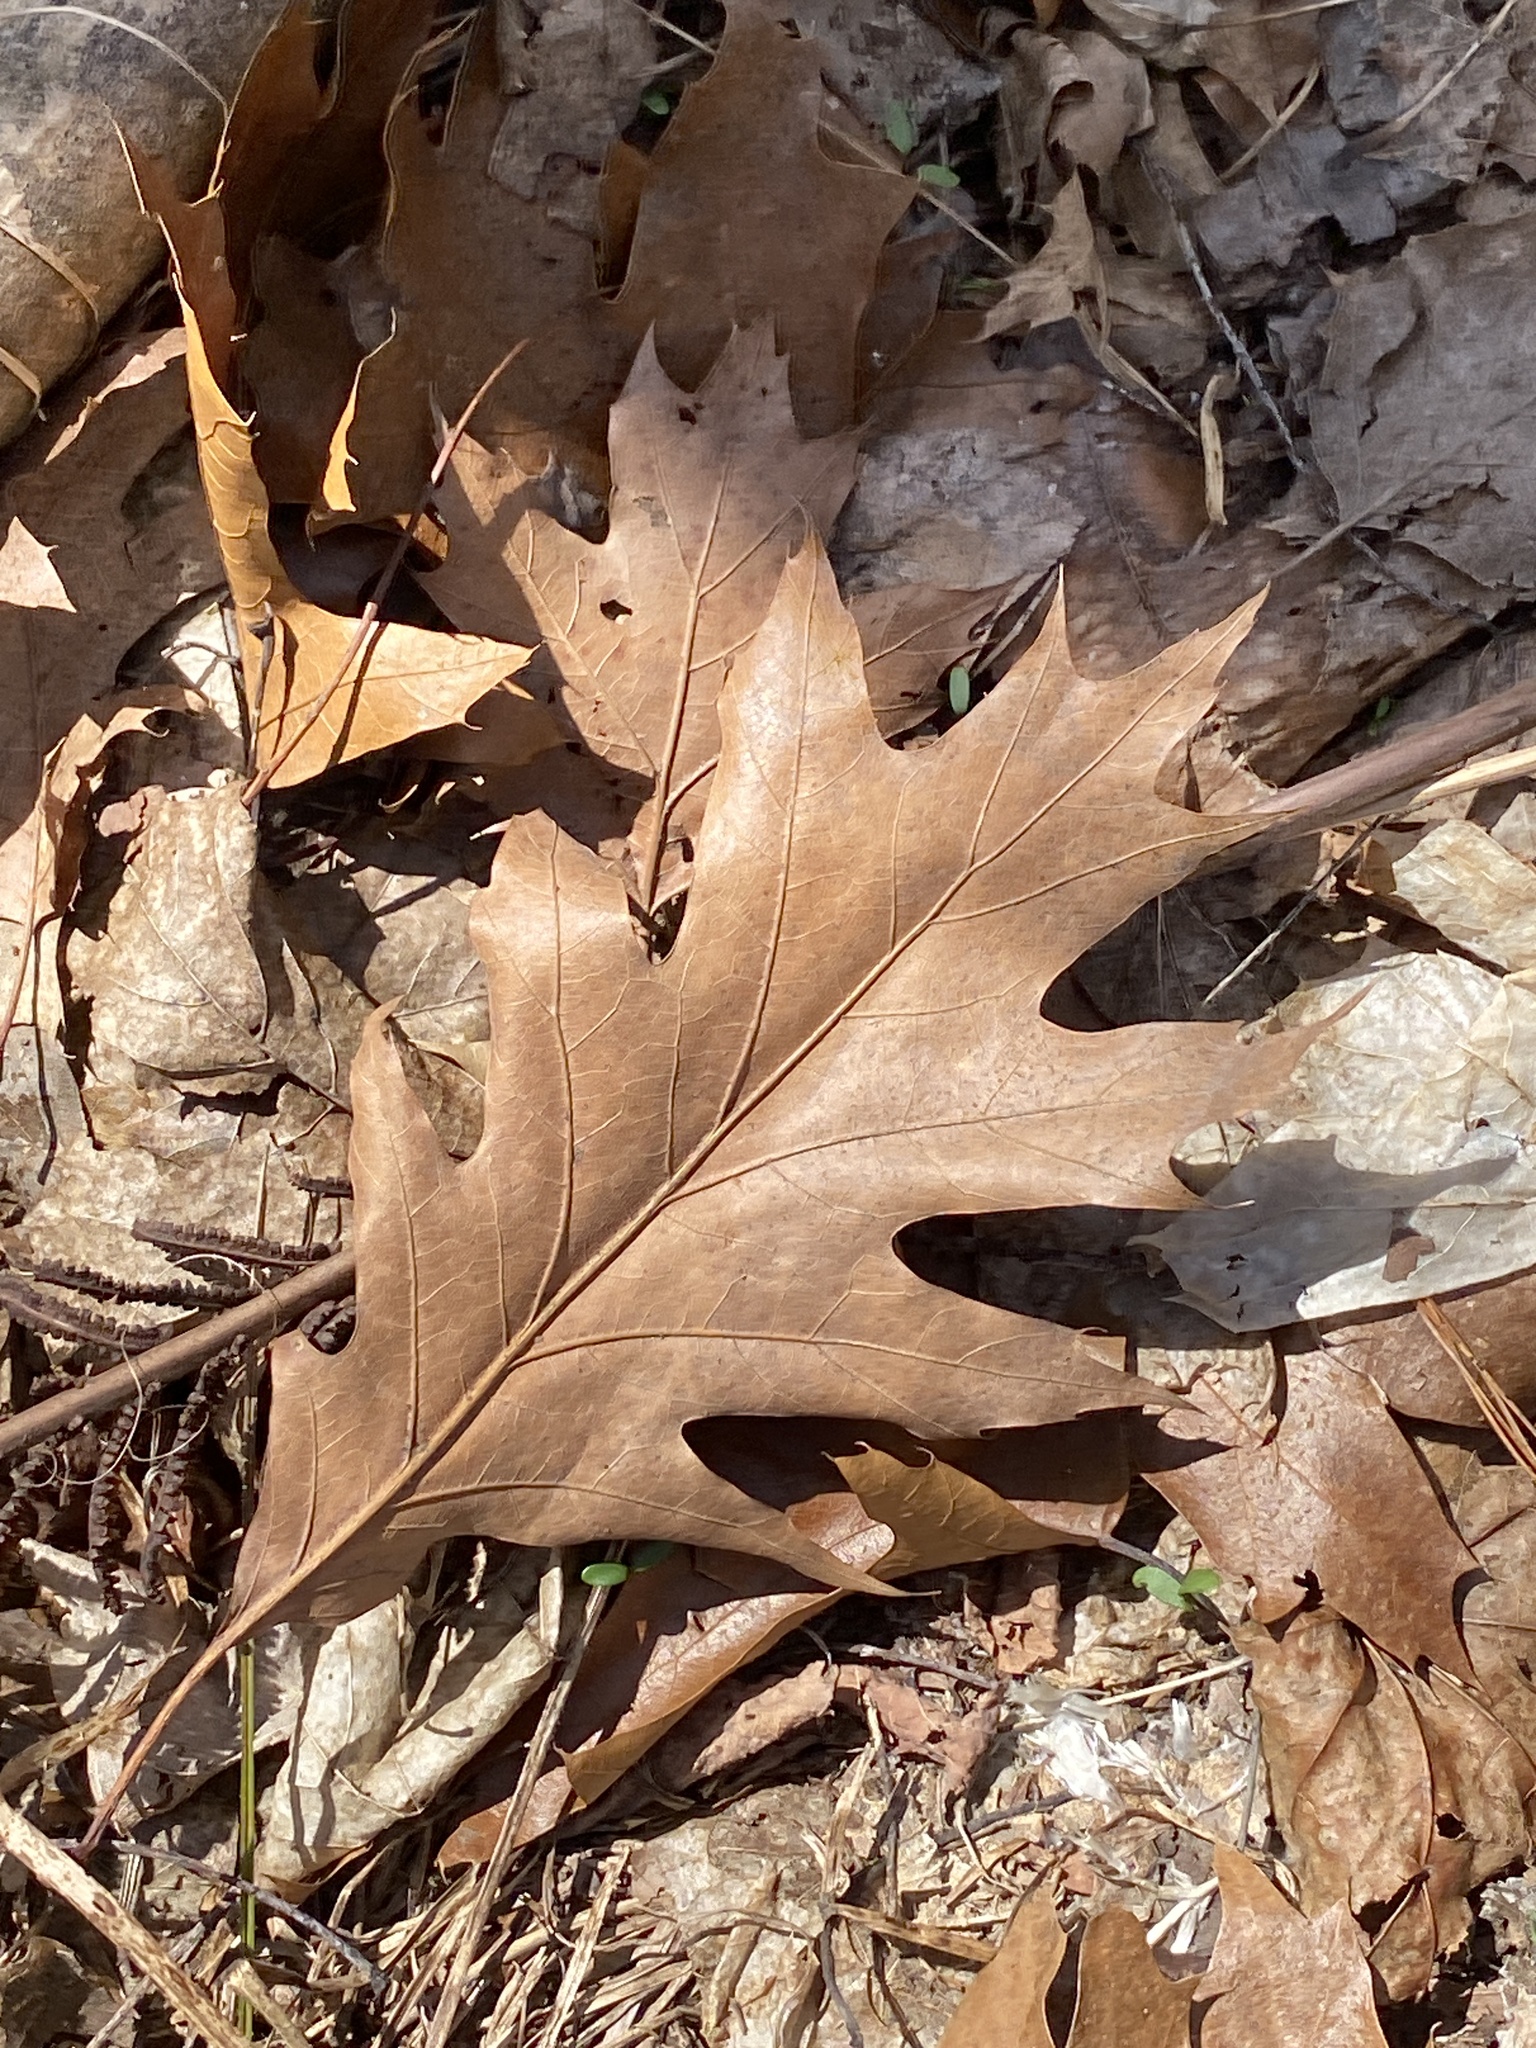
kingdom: Plantae
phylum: Tracheophyta
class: Magnoliopsida
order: Fagales
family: Fagaceae
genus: Quercus
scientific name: Quercus rubra
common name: Red oak
